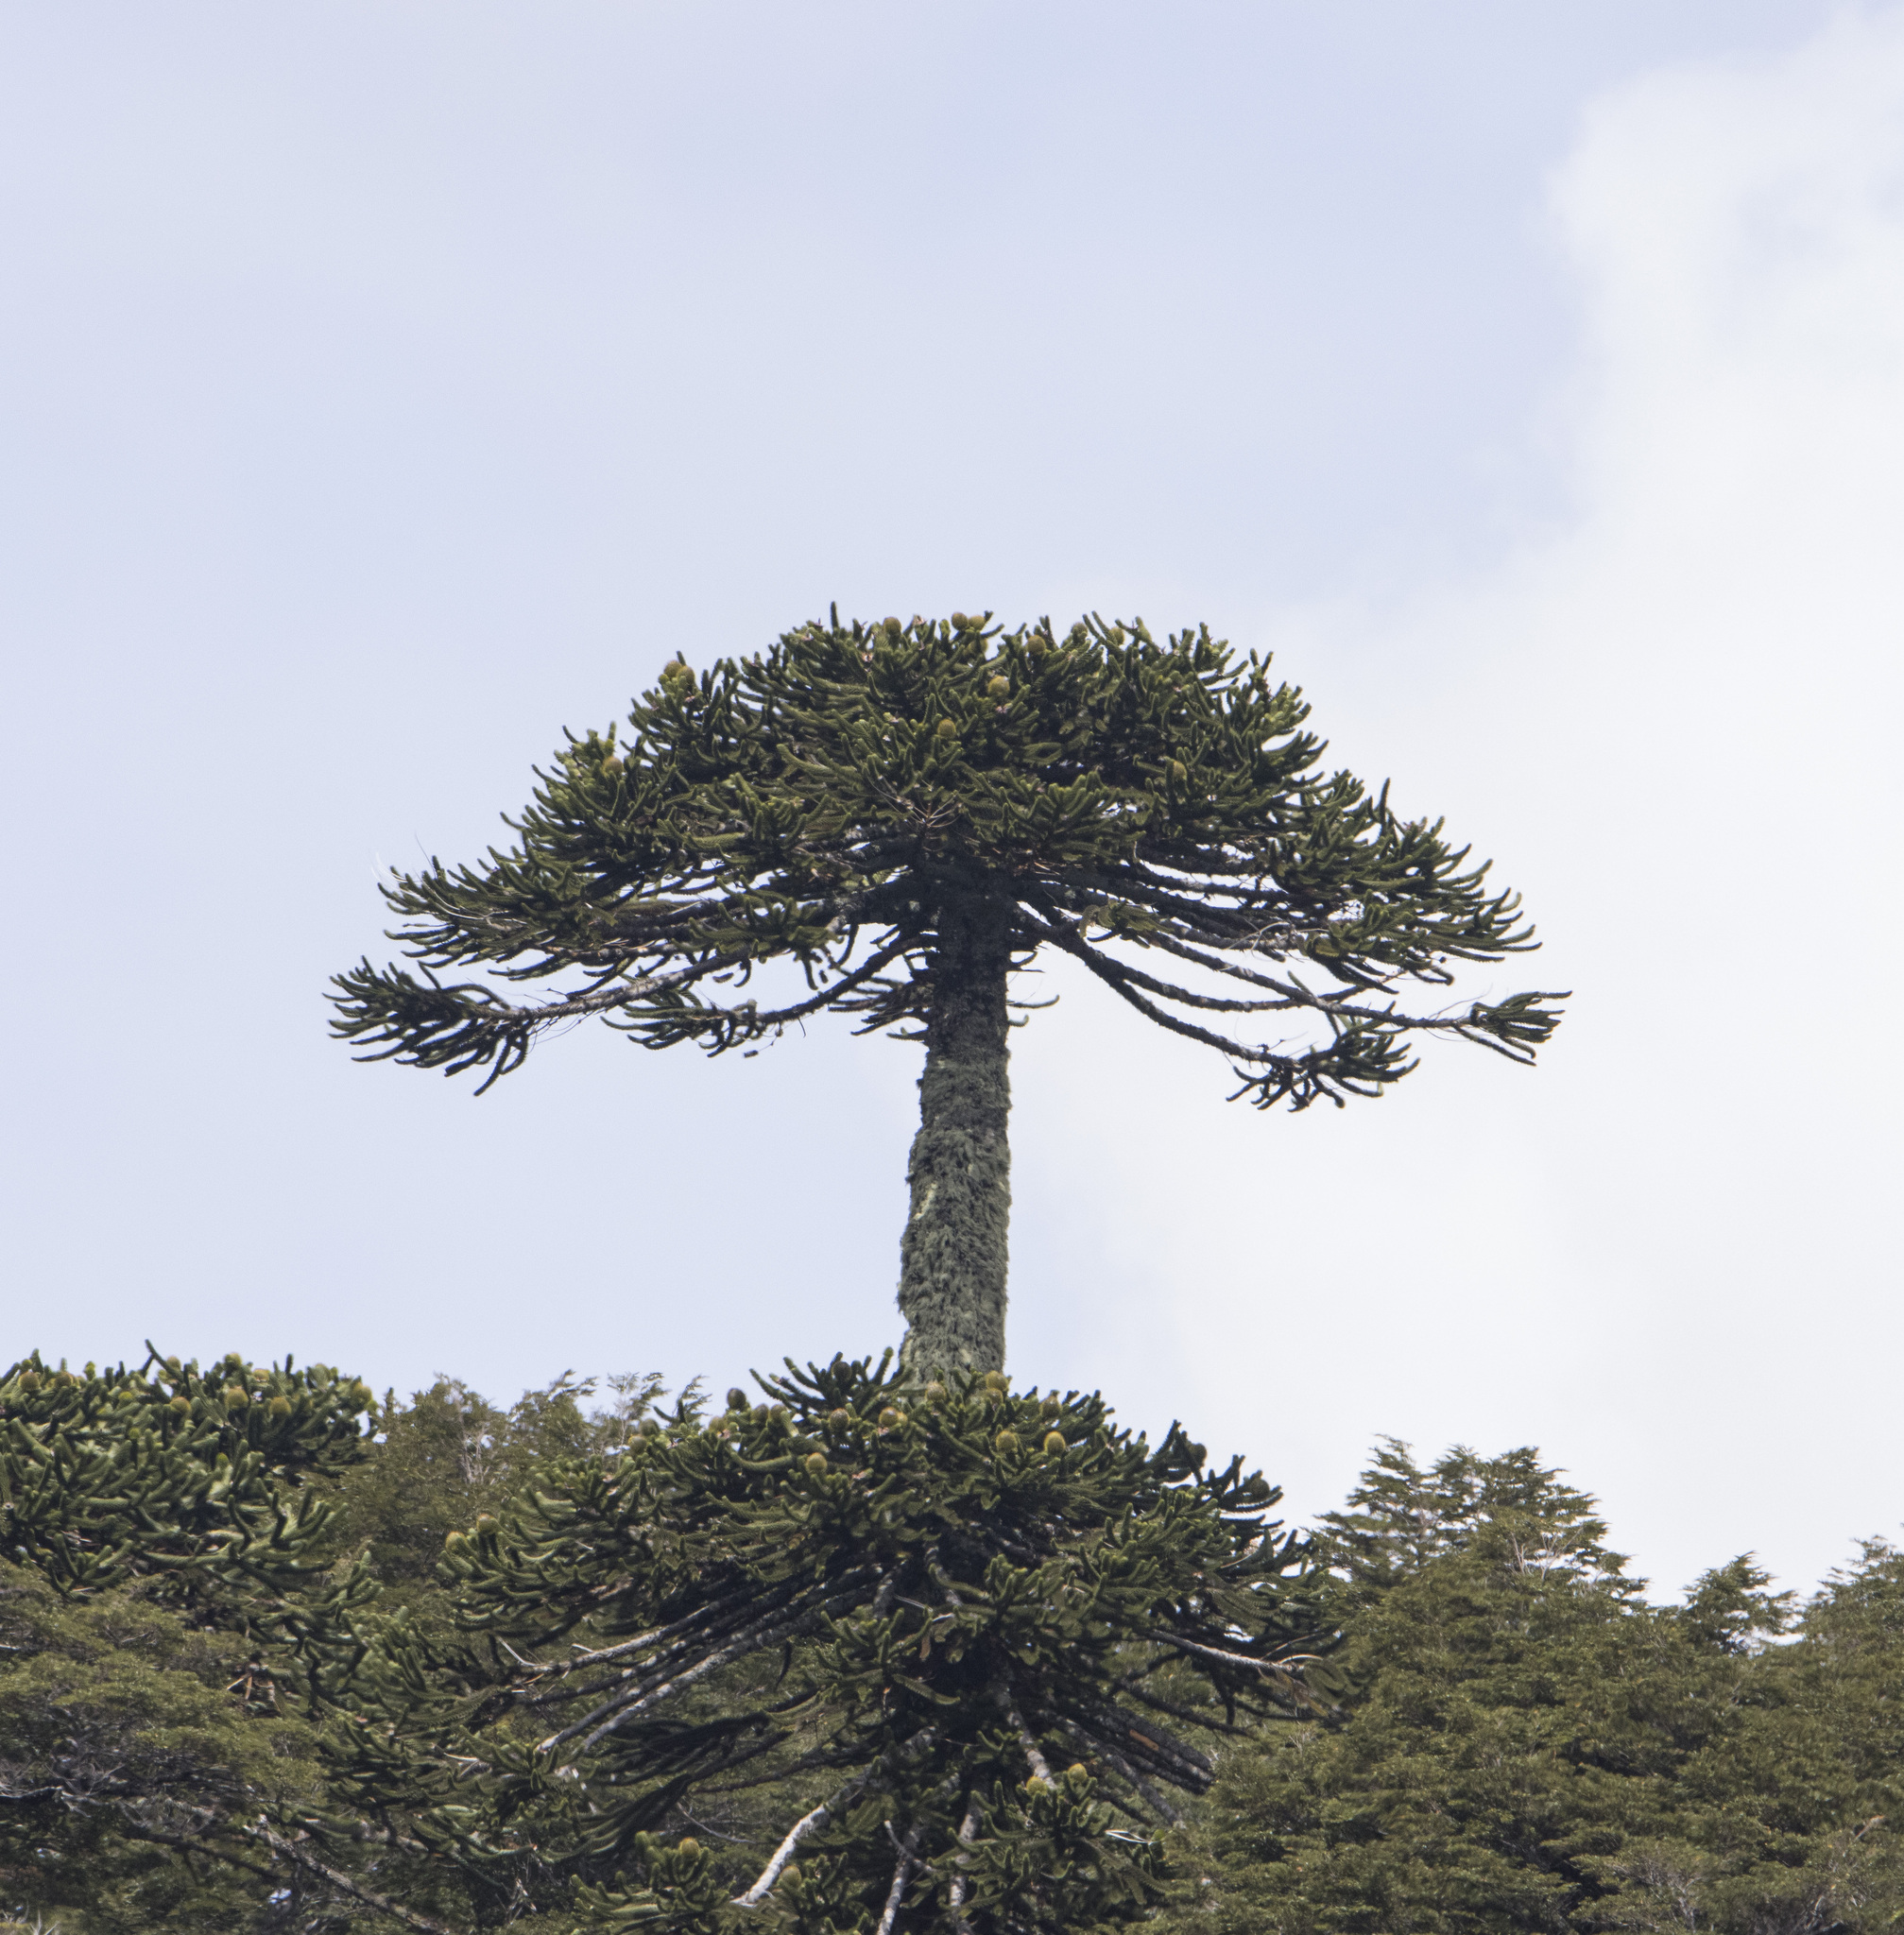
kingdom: Plantae
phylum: Tracheophyta
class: Pinopsida
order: Pinales
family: Araucariaceae
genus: Araucaria
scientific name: Araucaria araucana
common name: Monkey-puzzle
